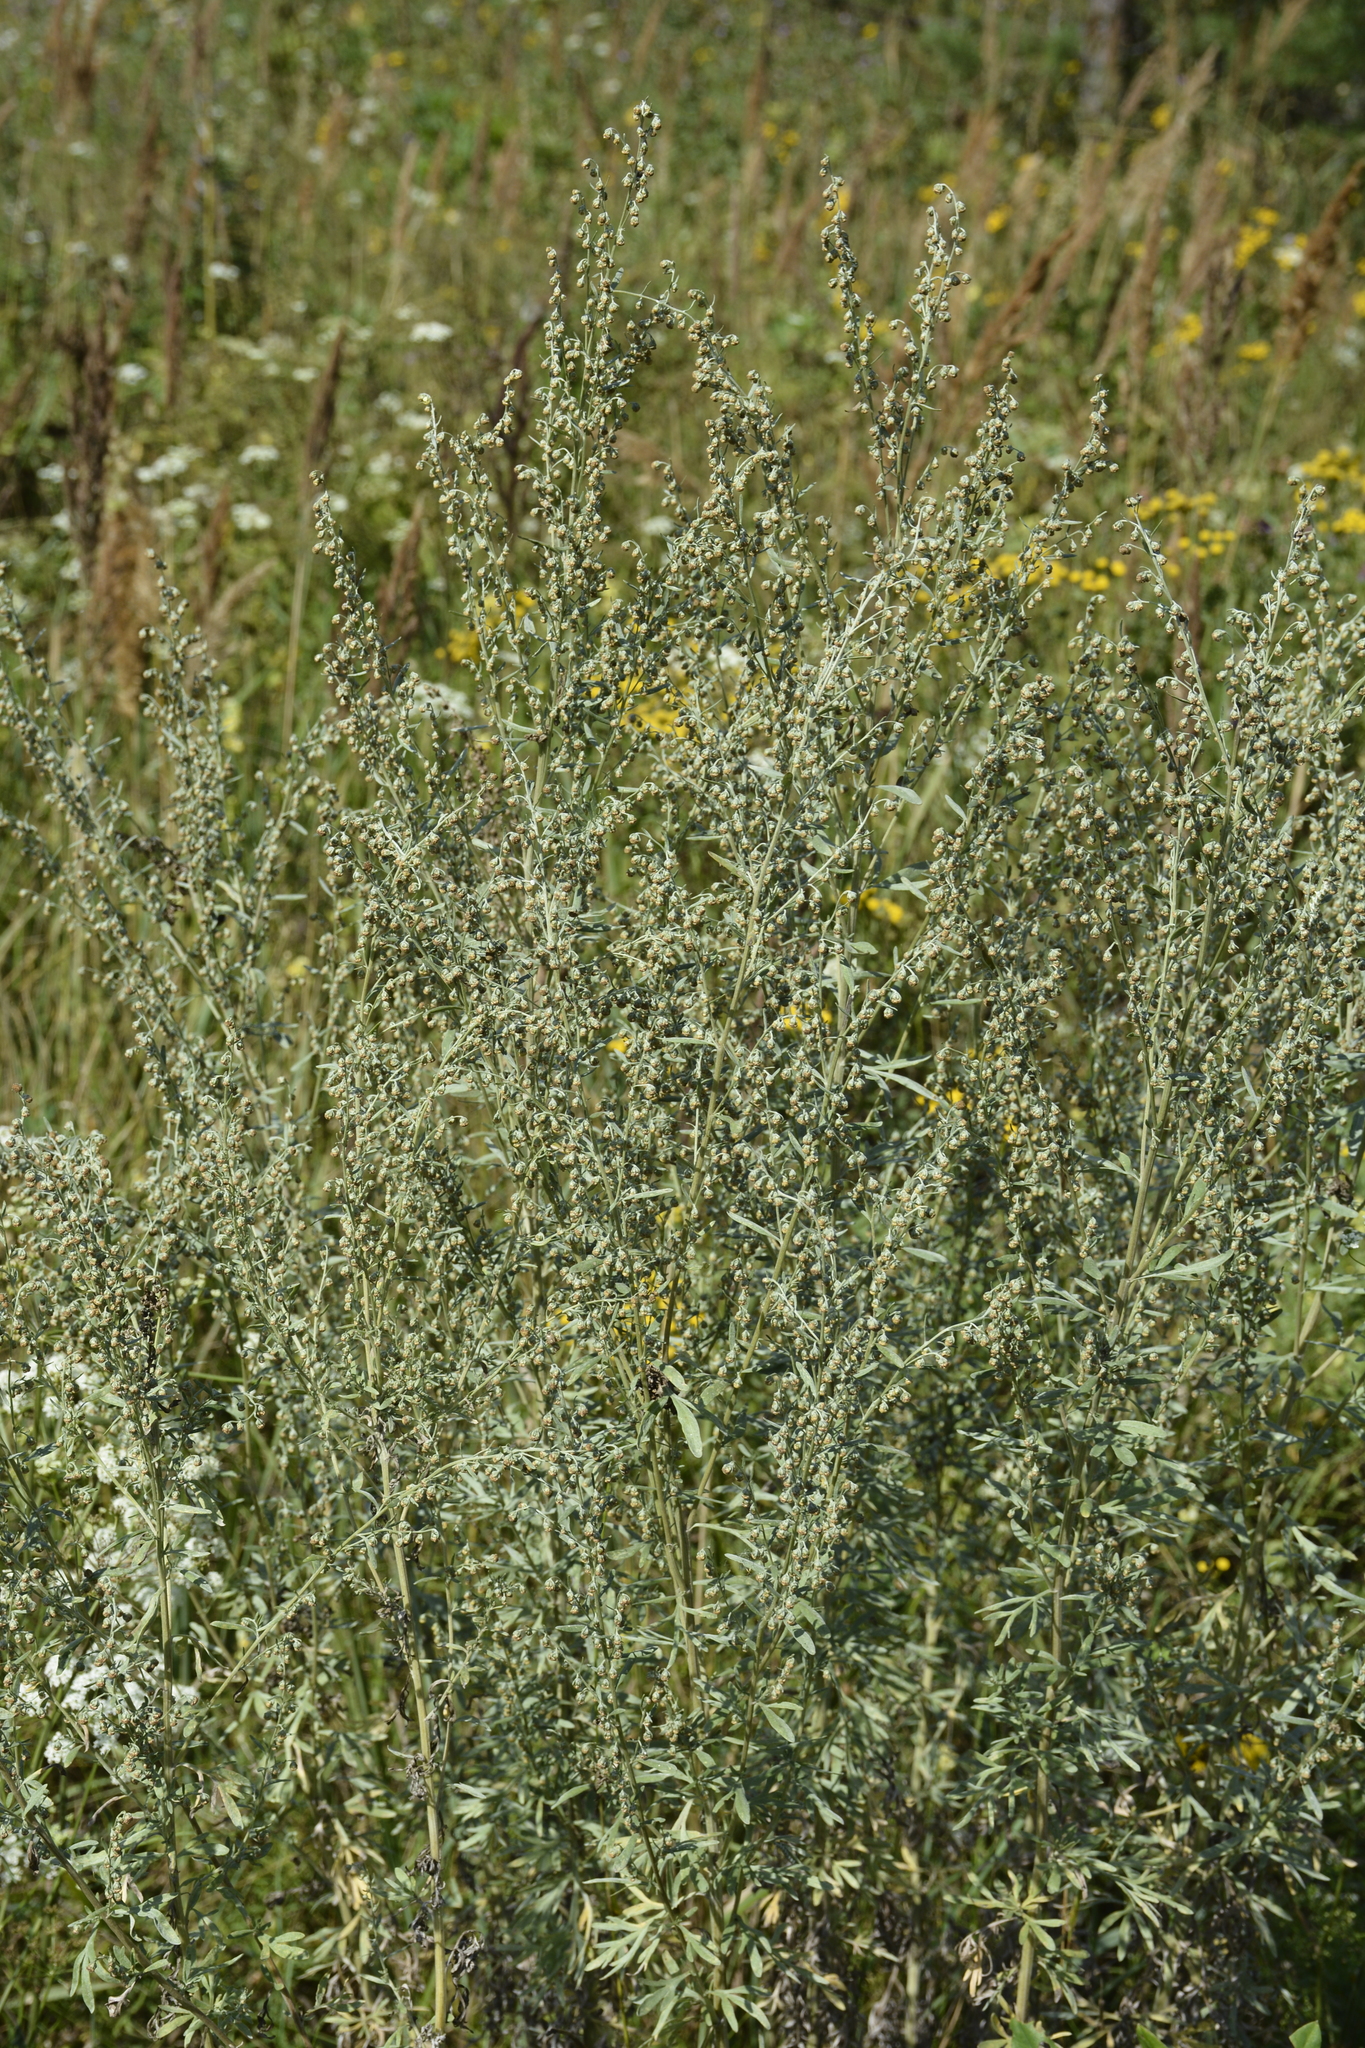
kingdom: Plantae
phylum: Tracheophyta
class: Magnoliopsida
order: Asterales
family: Asteraceae
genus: Artemisia
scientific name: Artemisia absinthium
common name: Wormwood
